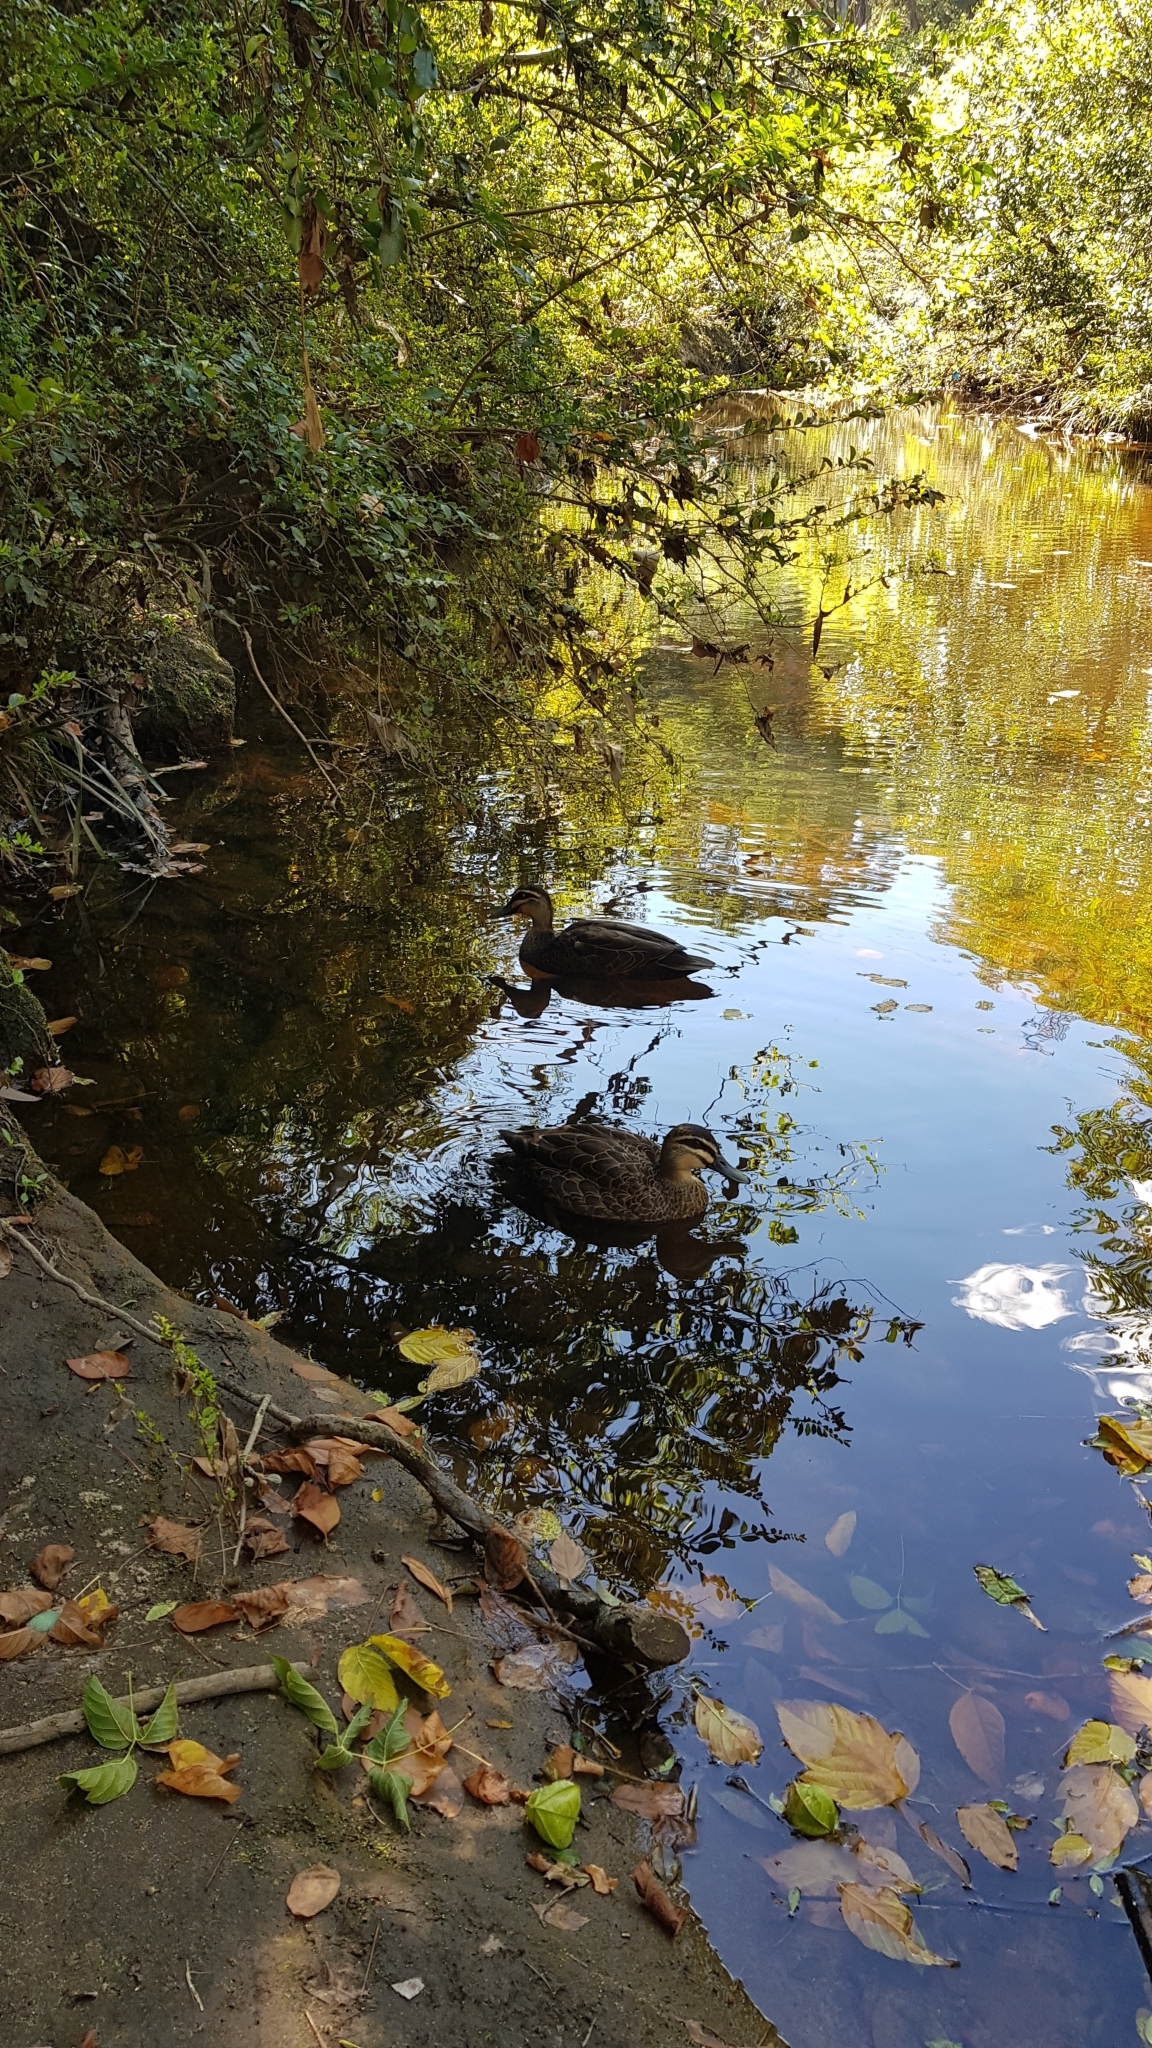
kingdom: Animalia
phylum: Chordata
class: Aves
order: Anseriformes
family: Anatidae
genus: Anas
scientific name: Anas superciliosa
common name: Pacific black duck
